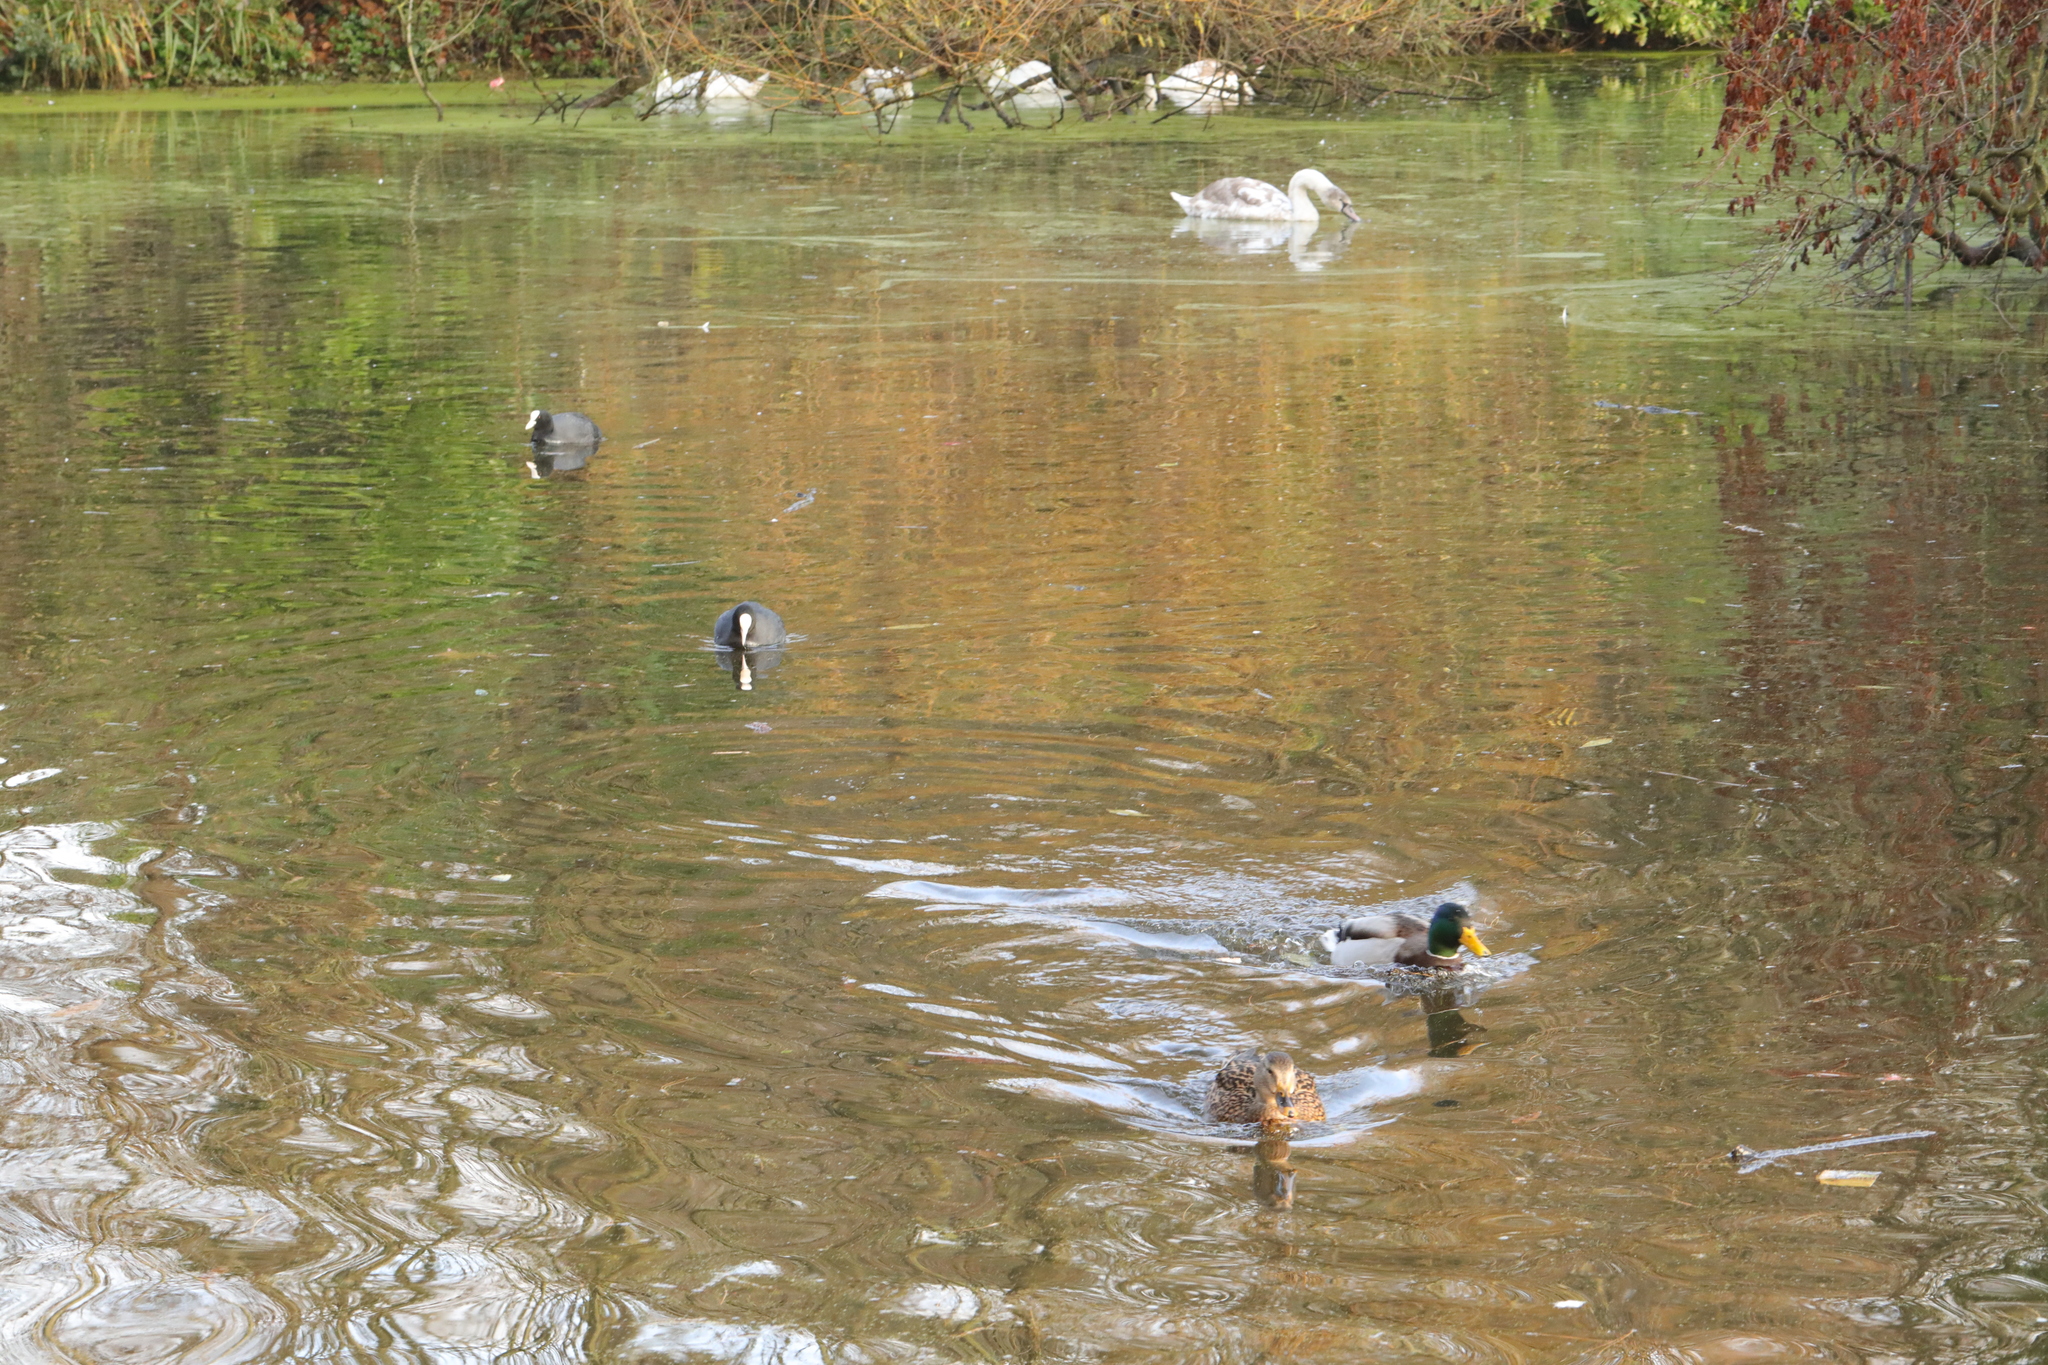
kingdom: Animalia
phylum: Chordata
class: Aves
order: Anseriformes
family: Anatidae
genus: Anas
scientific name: Anas platyrhynchos
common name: Mallard
